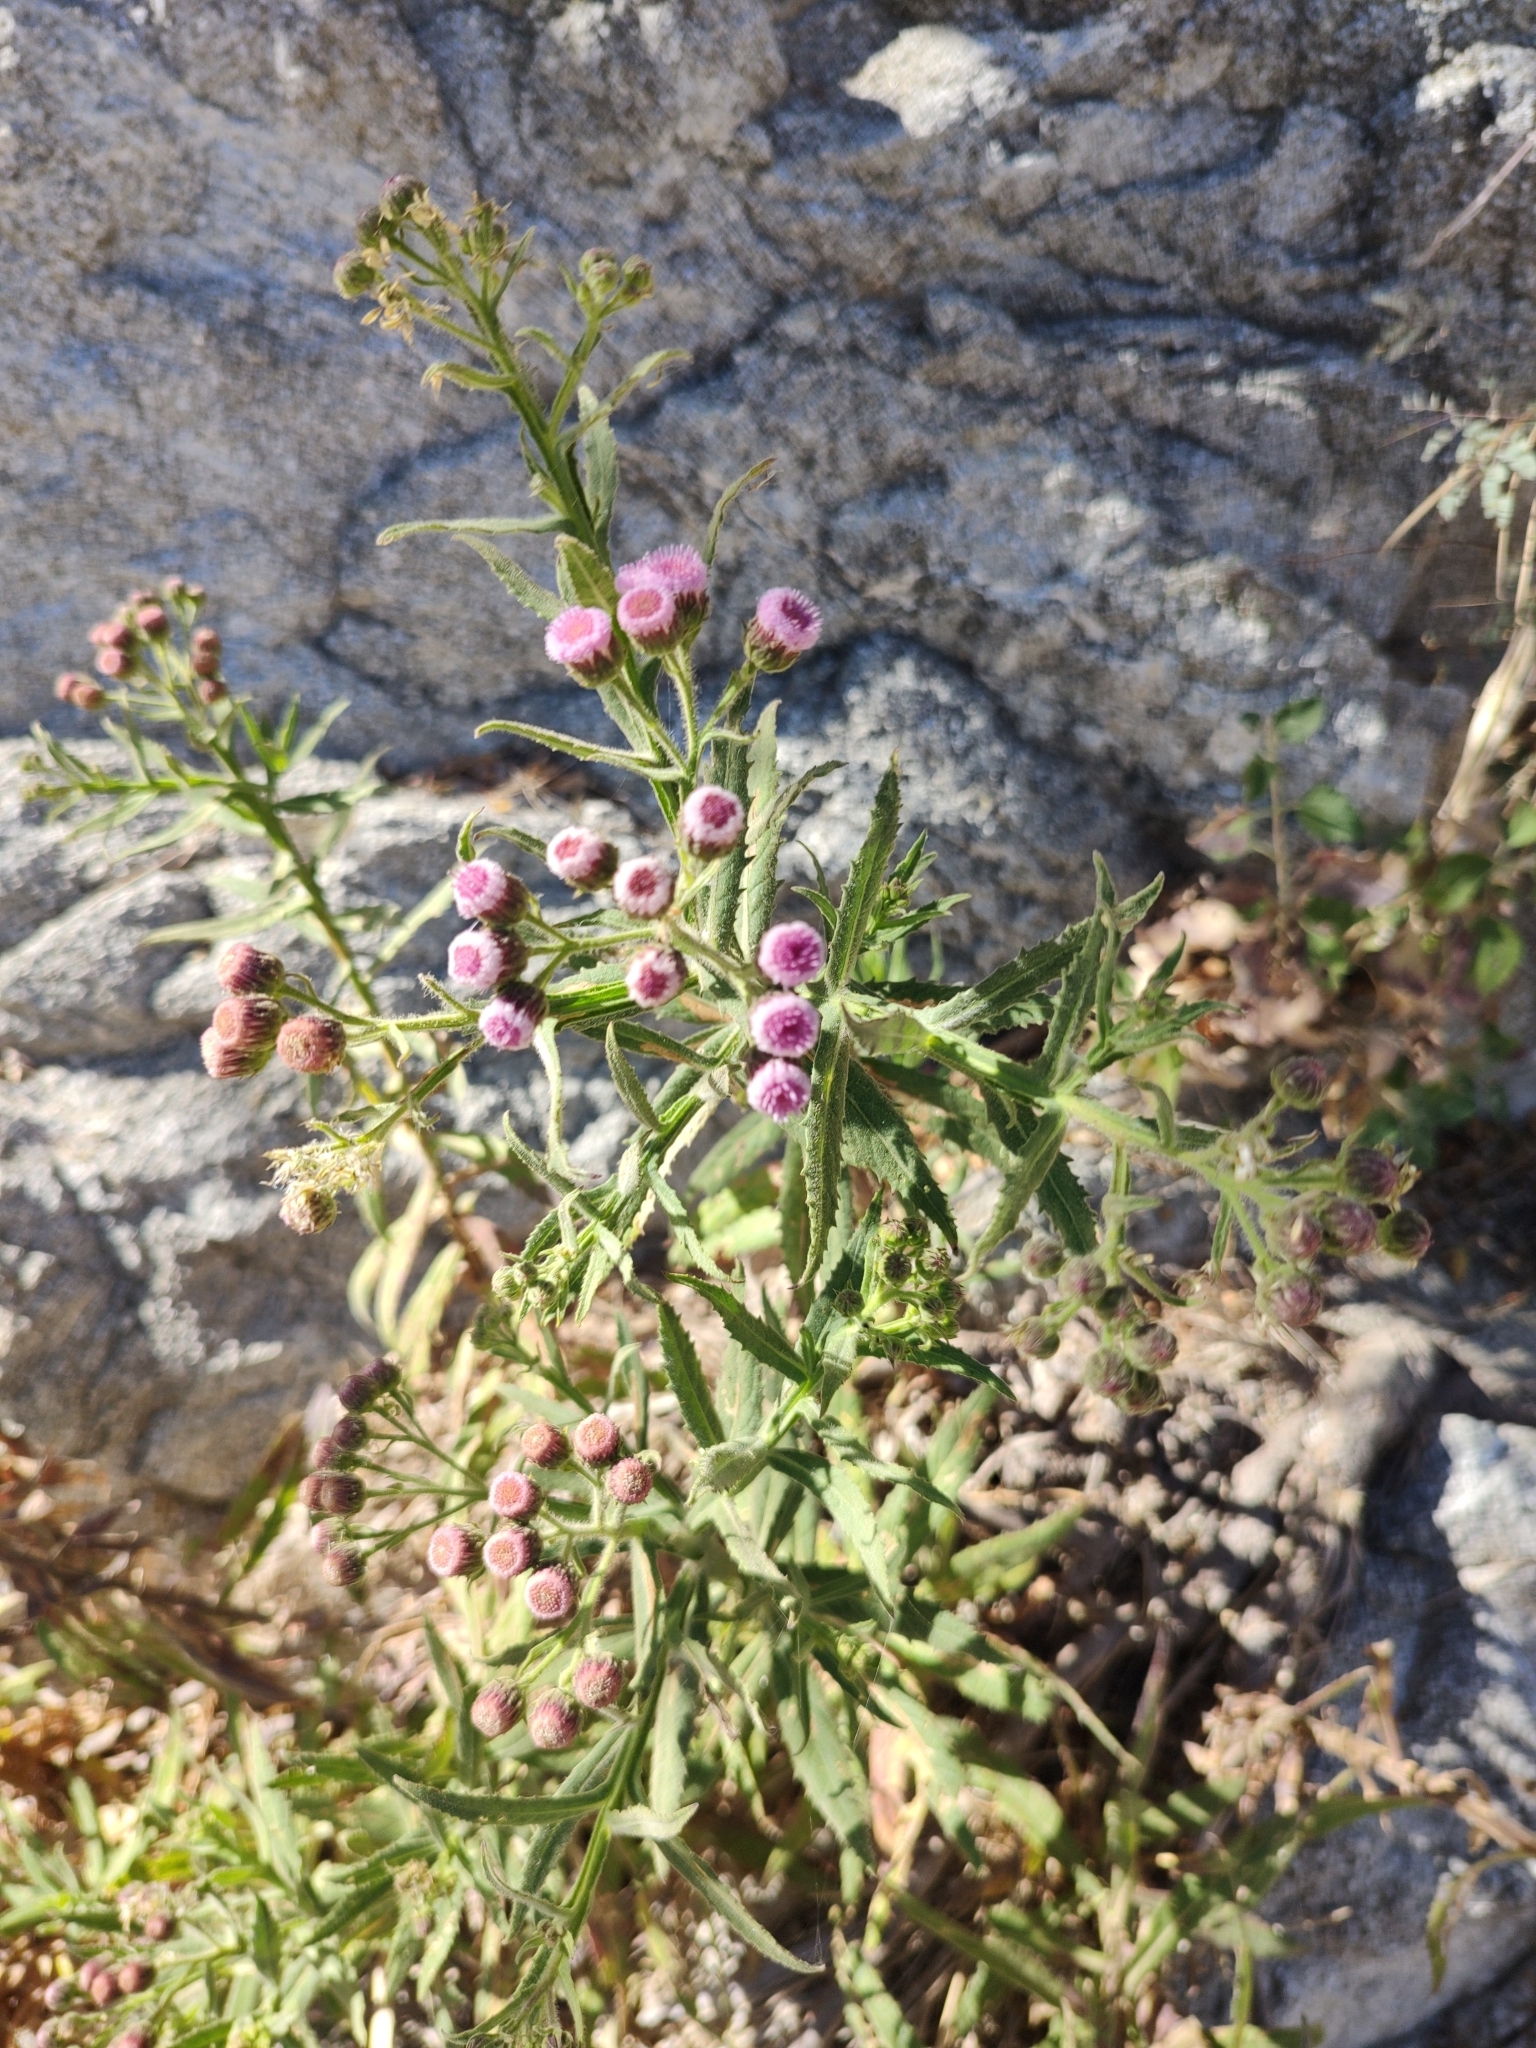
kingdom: Plantae
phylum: Tracheophyta
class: Magnoliopsida
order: Asterales
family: Asteraceae
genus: Pluchea
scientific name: Pluchea salicifolia
